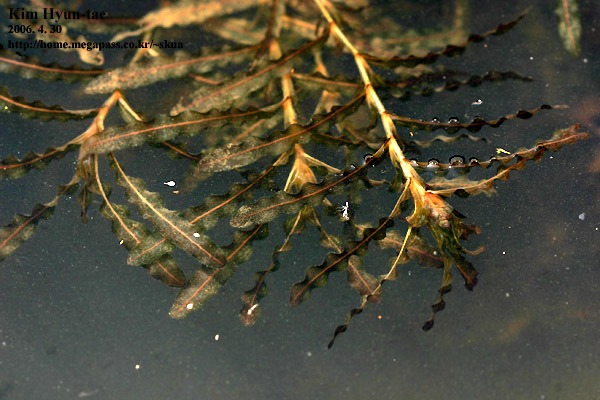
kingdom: Plantae
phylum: Tracheophyta
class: Liliopsida
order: Alismatales
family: Potamogetonaceae
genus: Potamogeton
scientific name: Potamogeton crispus
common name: Curled pondweed
